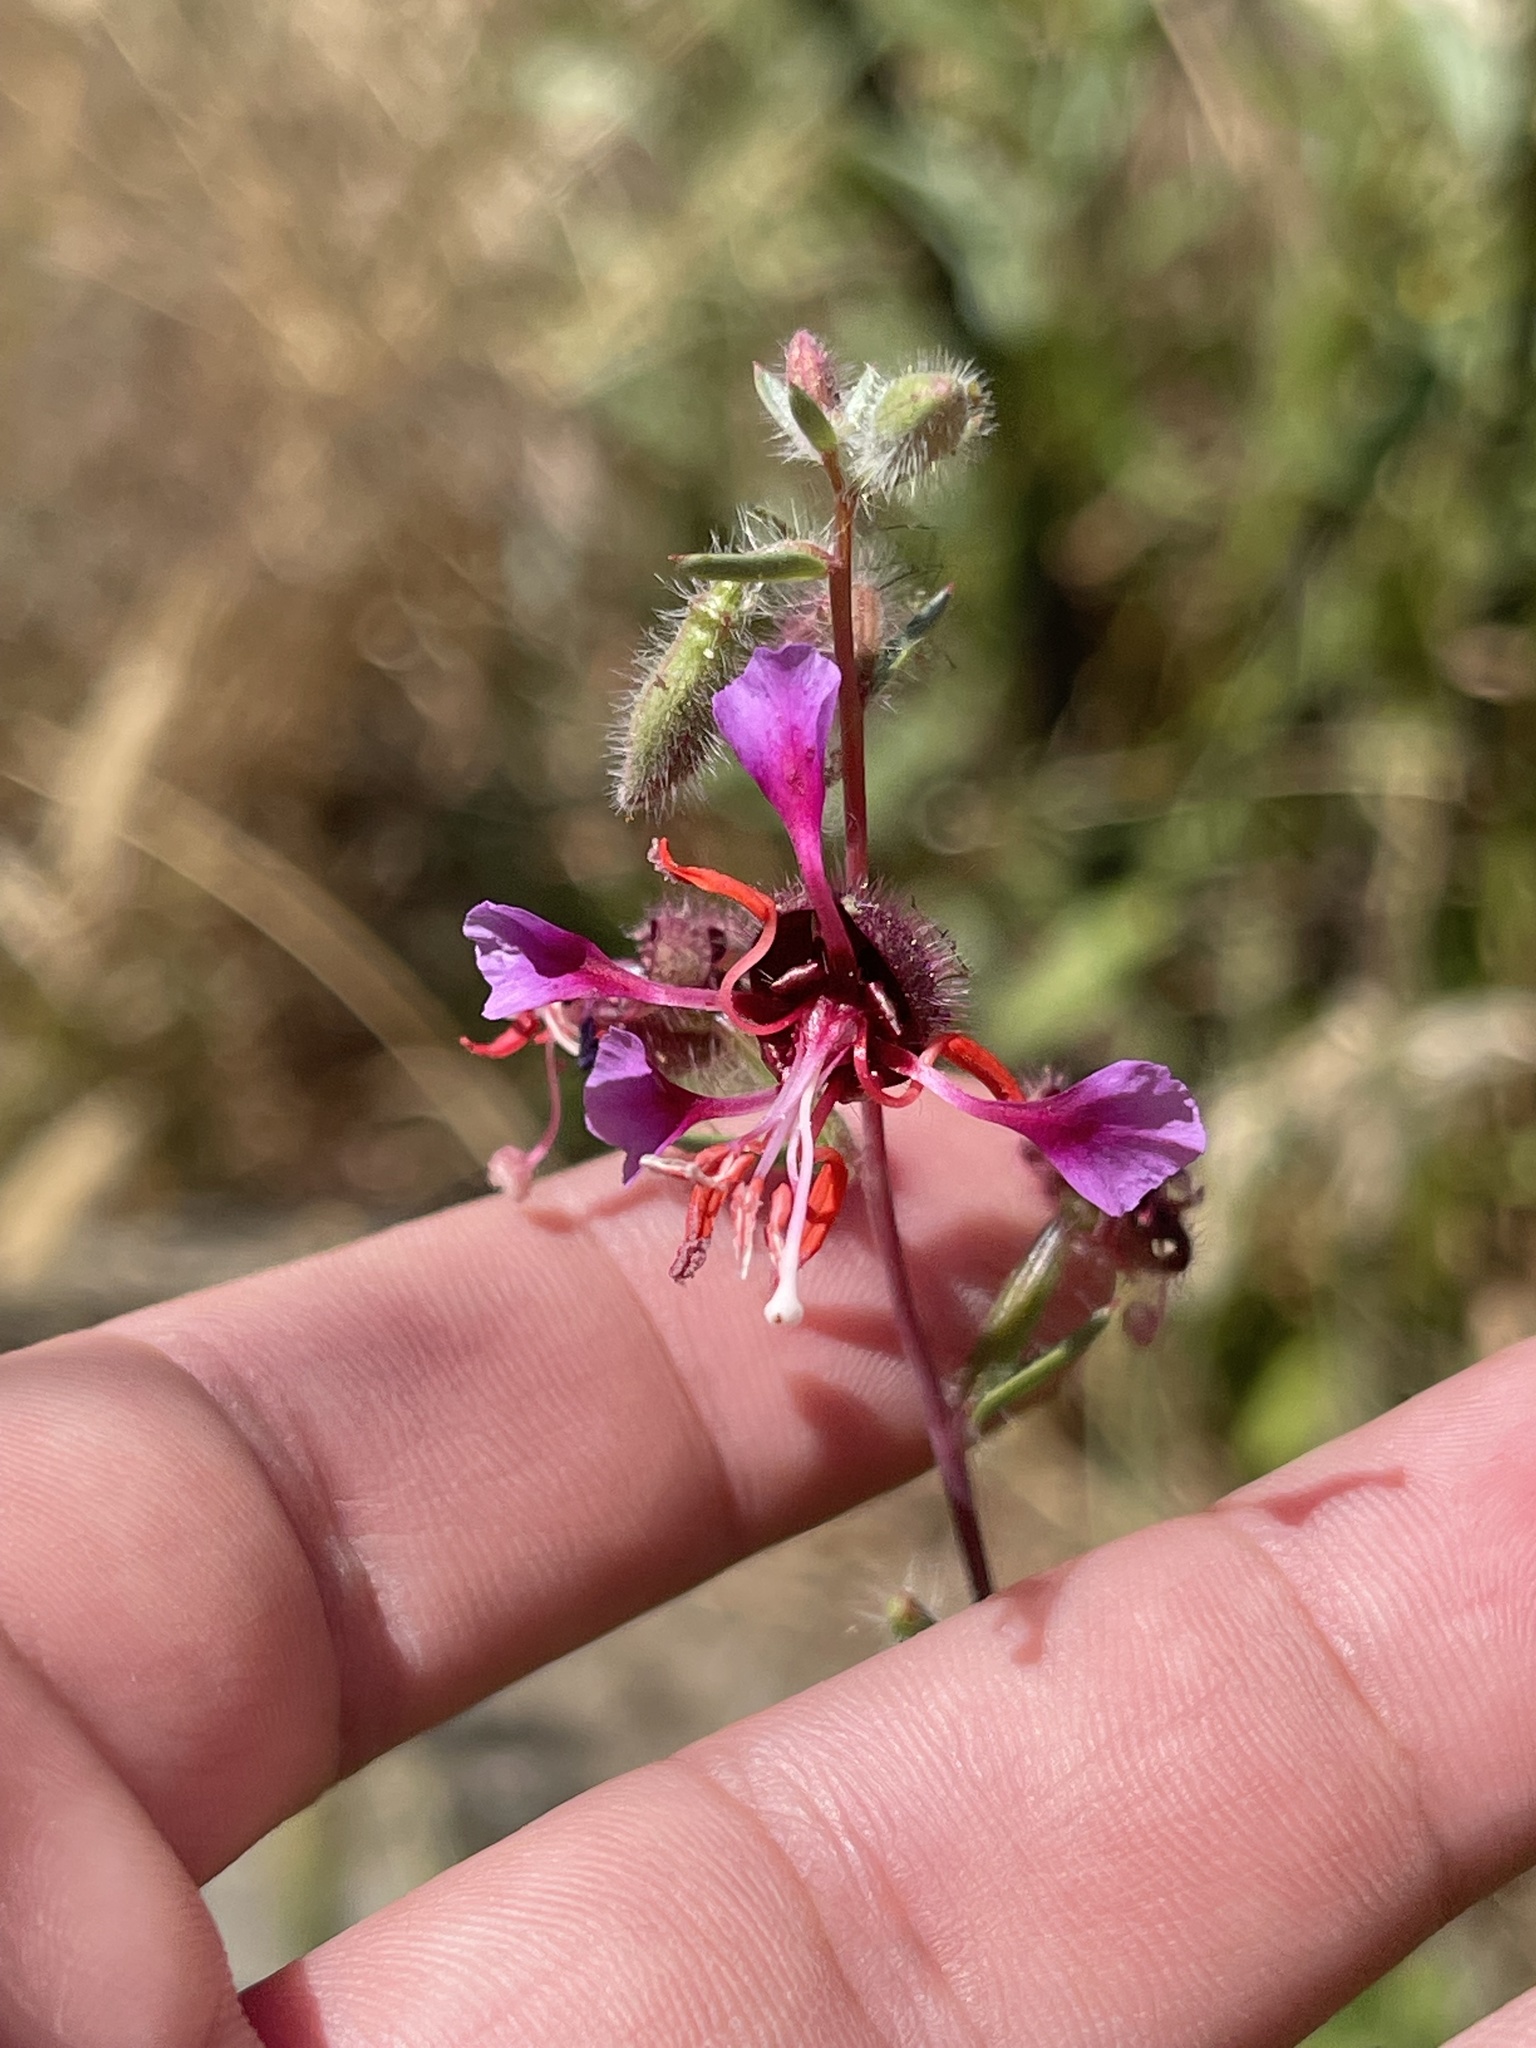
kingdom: Plantae
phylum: Tracheophyta
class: Magnoliopsida
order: Myrtales
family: Onagraceae
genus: Clarkia
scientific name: Clarkia unguiculata
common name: Clarkia
